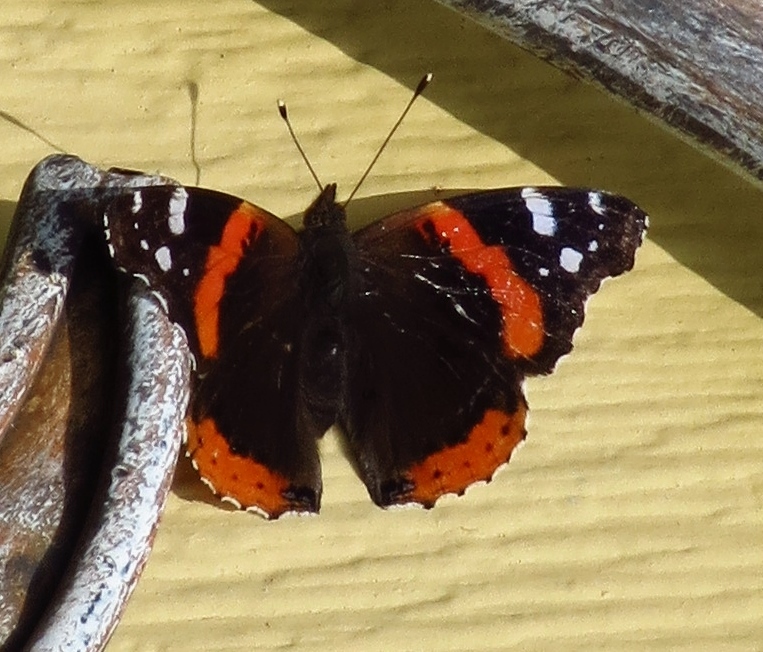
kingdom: Animalia
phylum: Arthropoda
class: Insecta
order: Lepidoptera
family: Nymphalidae
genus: Vanessa
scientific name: Vanessa atalanta
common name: Red admiral
